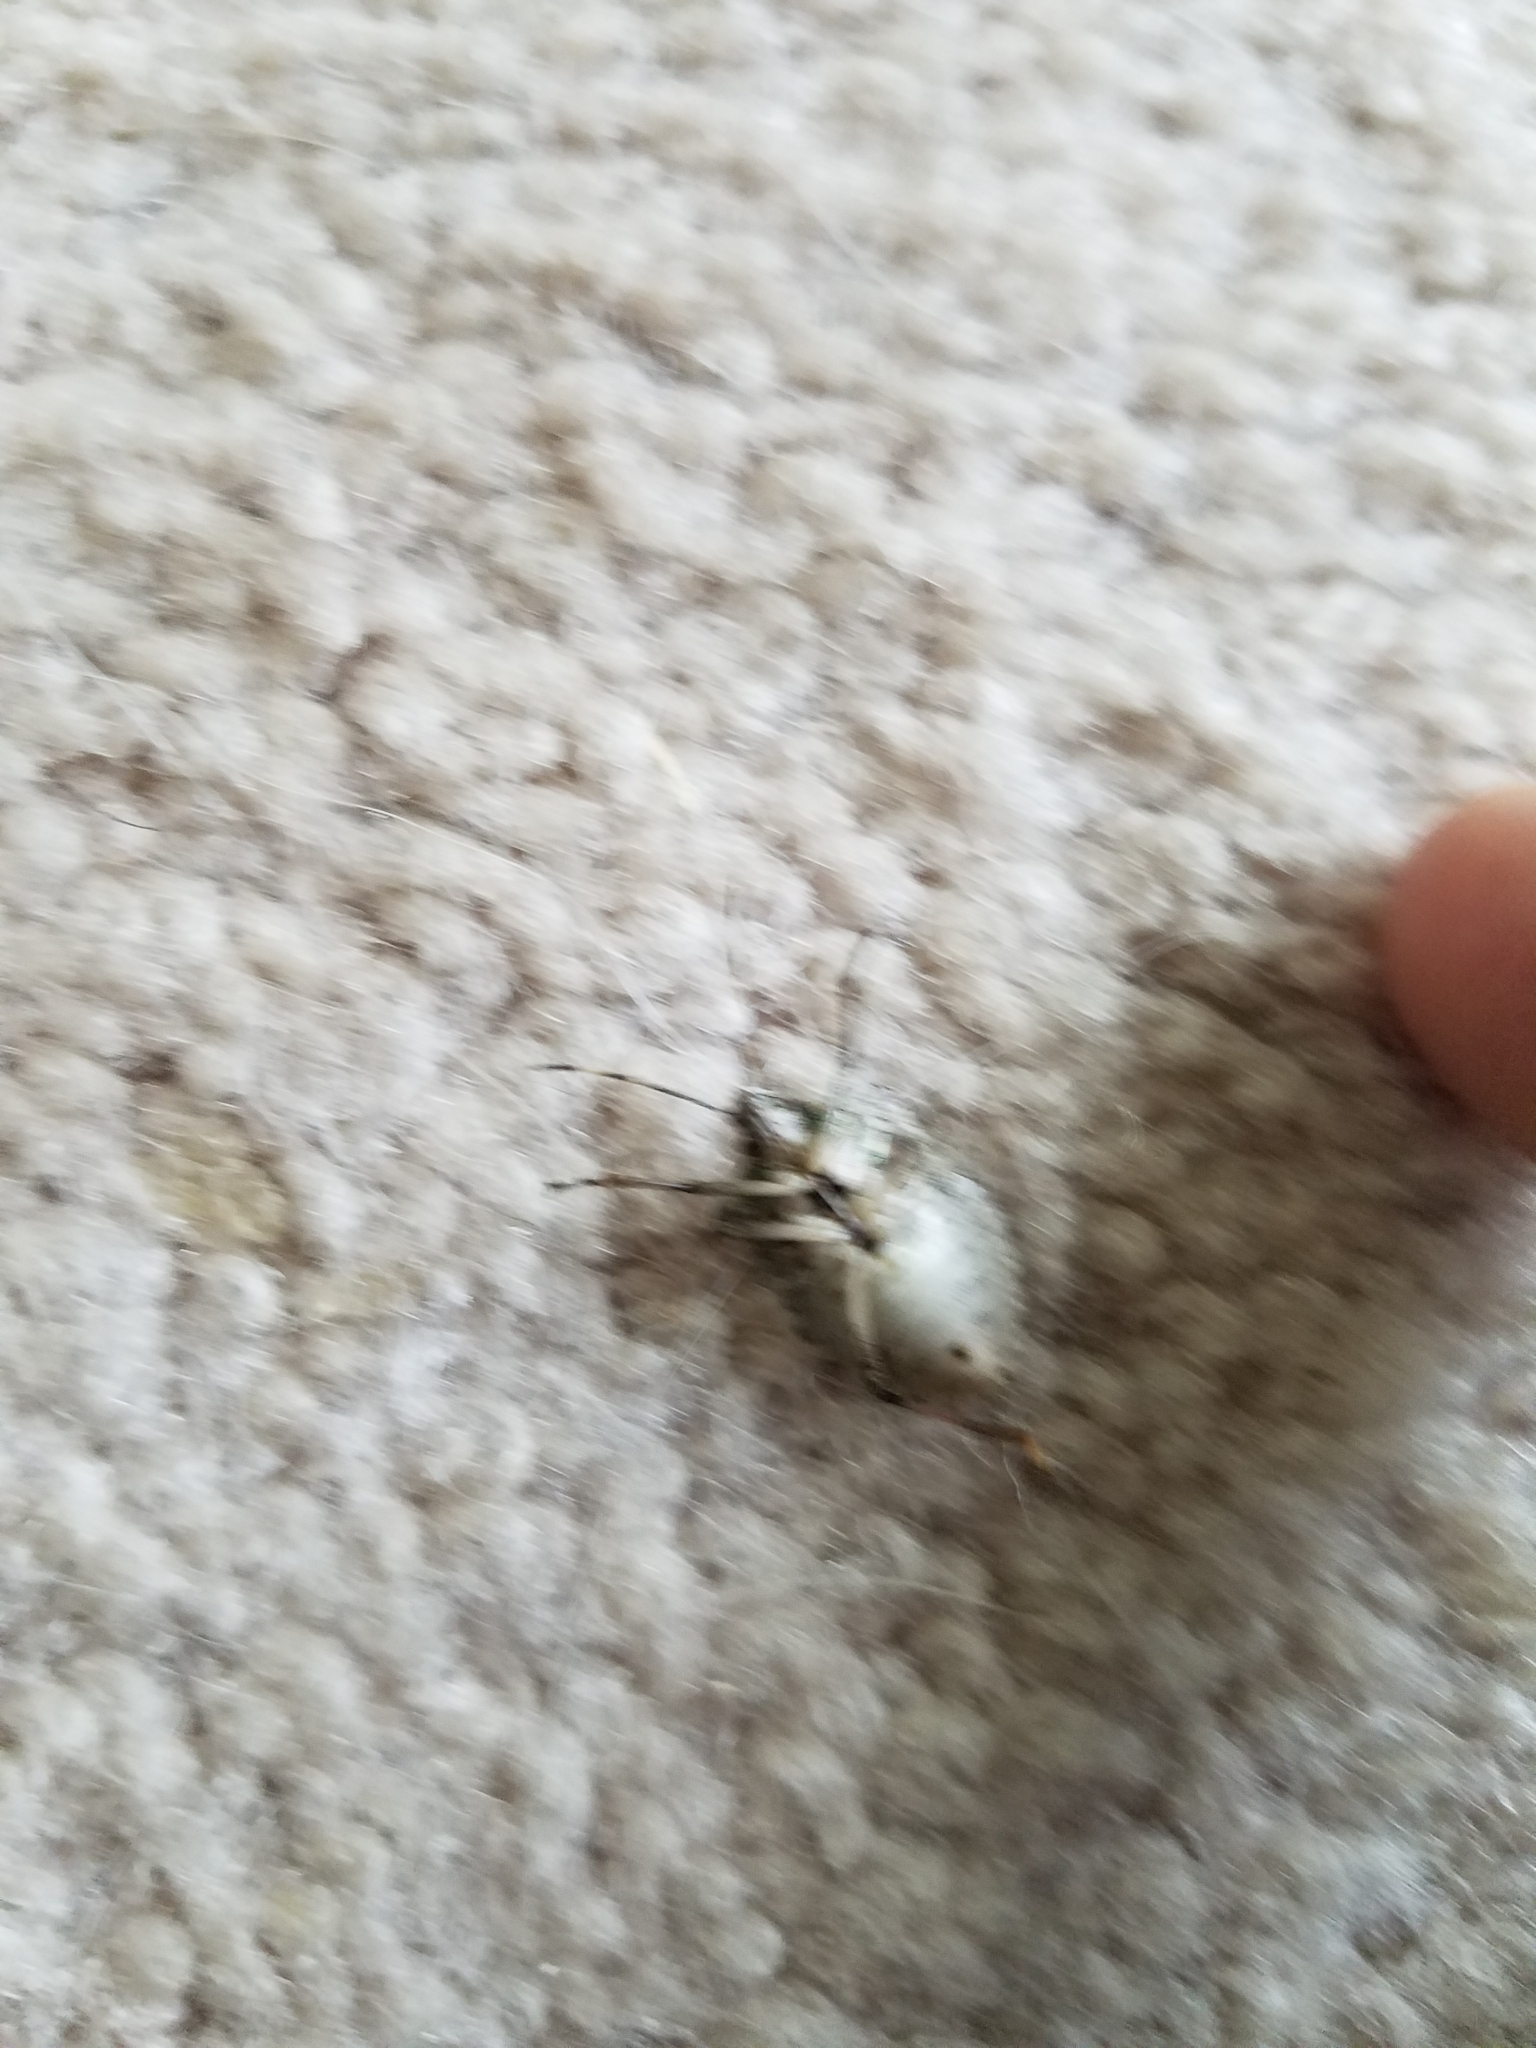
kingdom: Animalia
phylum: Arthropoda
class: Insecta
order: Hemiptera
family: Pentatomidae
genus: Halyomorpha
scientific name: Halyomorpha halys
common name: Brown marmorated stink bug
